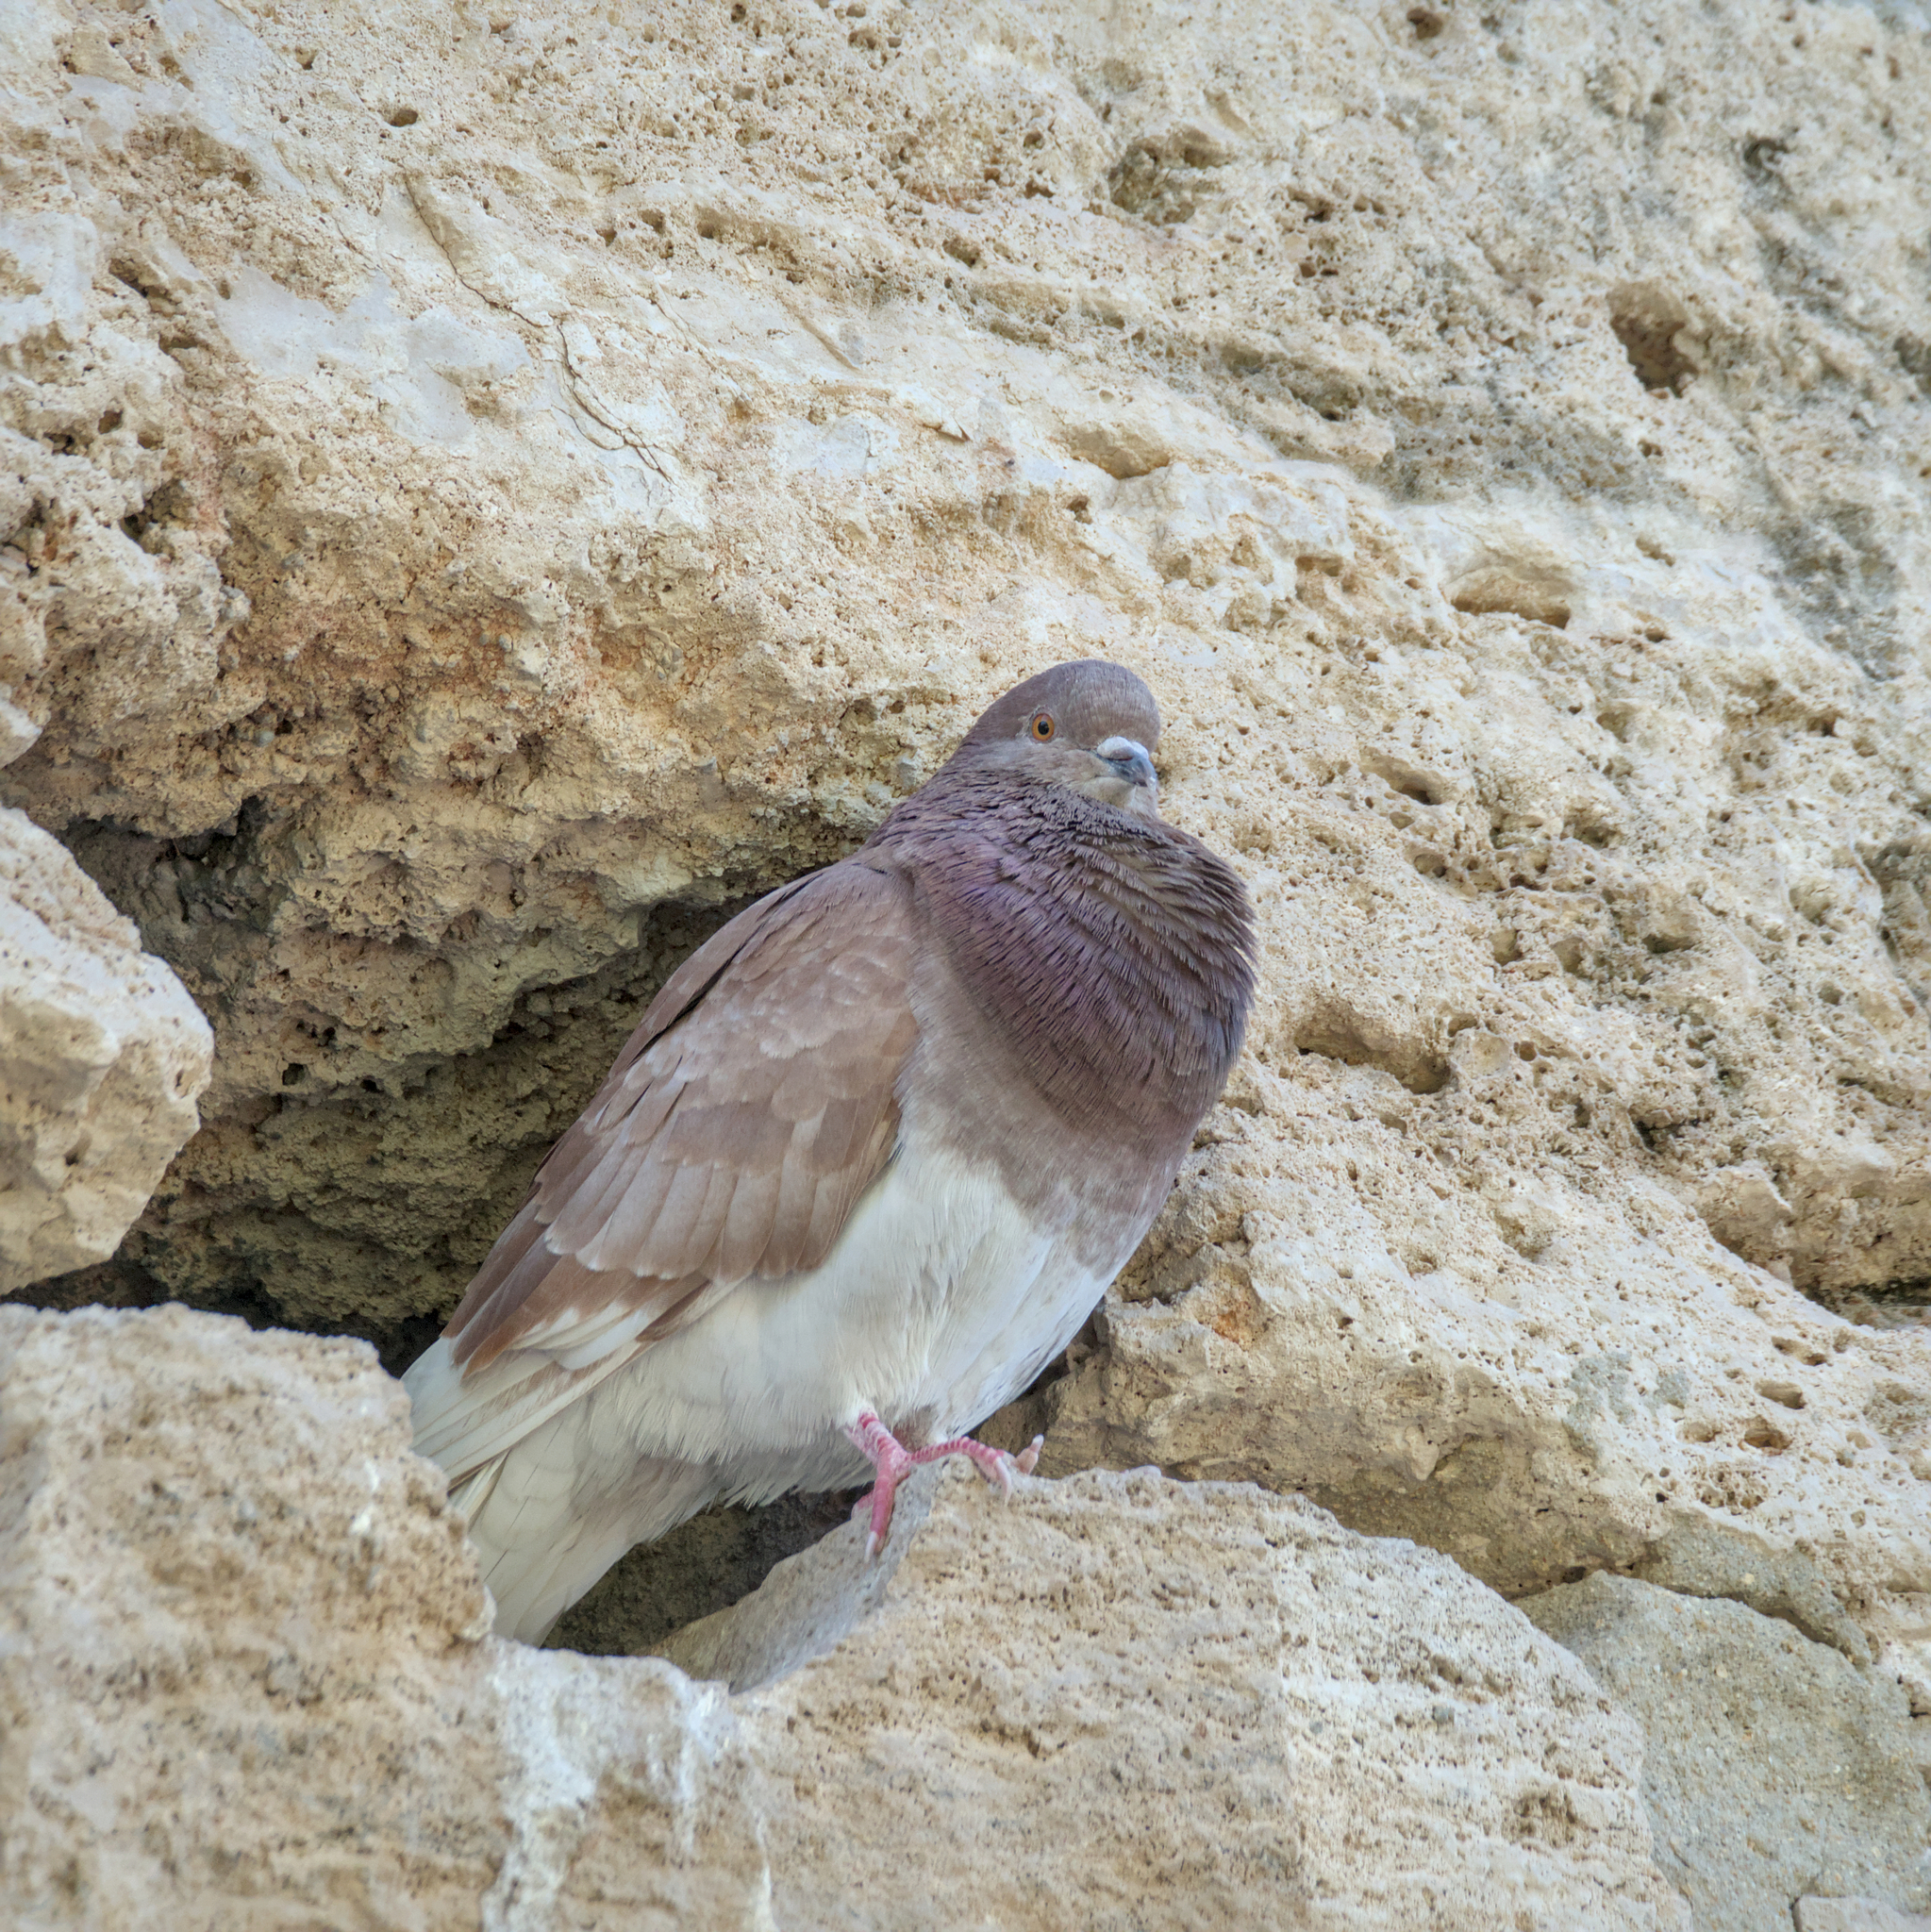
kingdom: Animalia
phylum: Chordata
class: Aves
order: Columbiformes
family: Columbidae
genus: Columba
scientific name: Columba livia
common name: Rock pigeon
